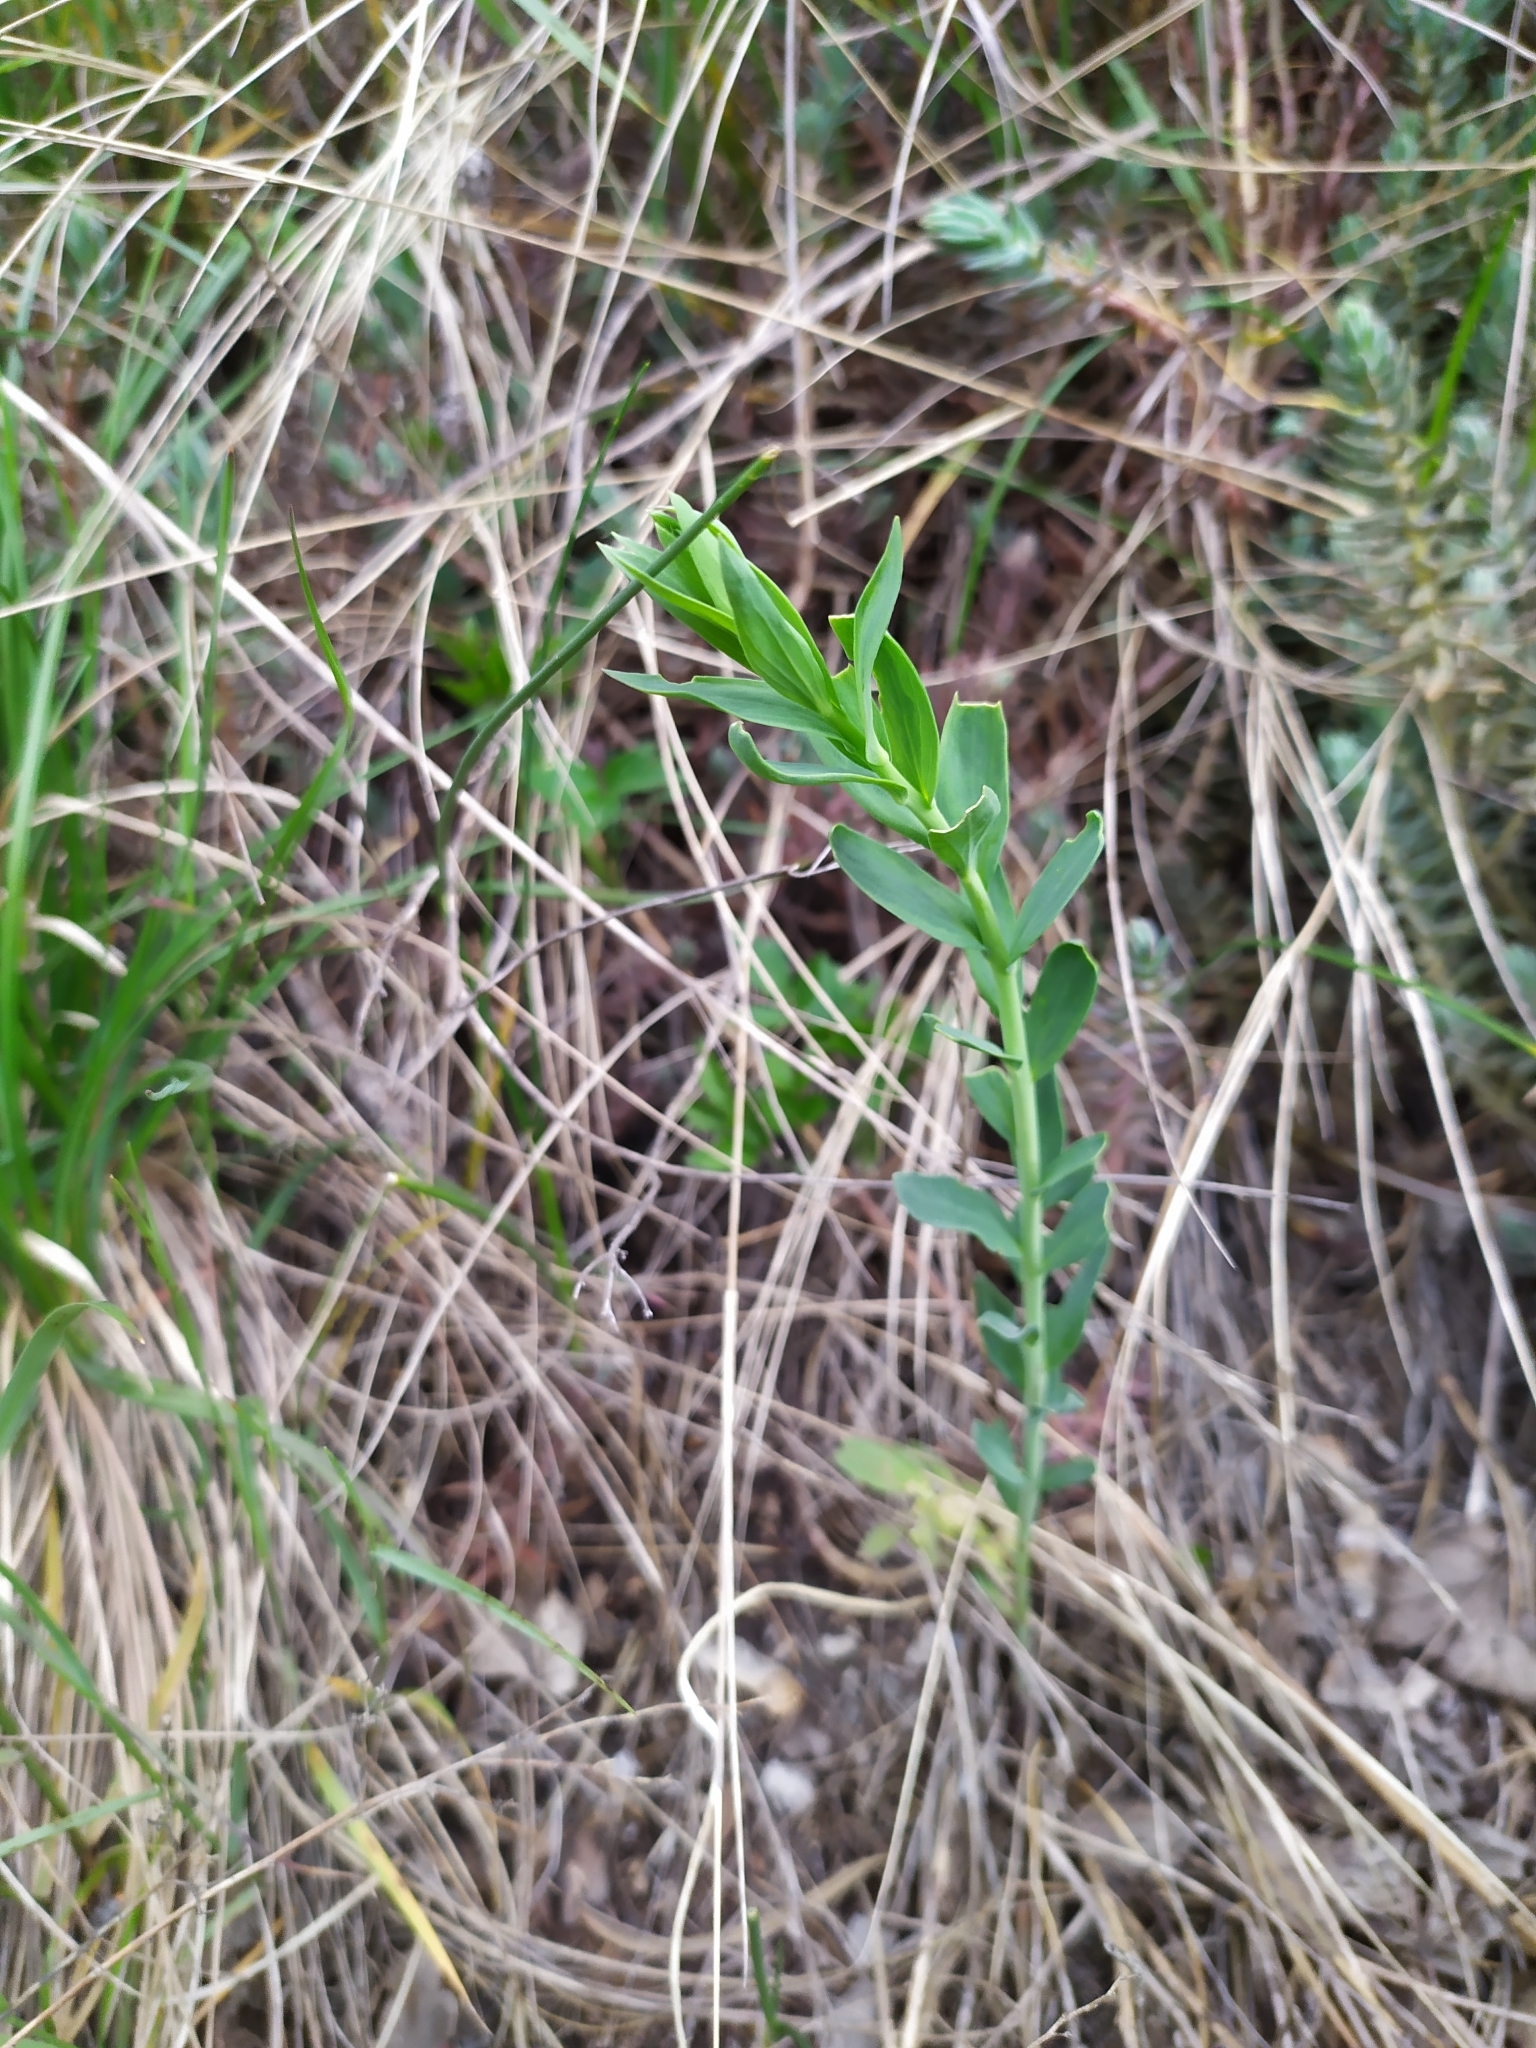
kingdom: Plantae
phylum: Tracheophyta
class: Magnoliopsida
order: Lamiales
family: Plantaginaceae
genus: Linaria
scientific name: Linaria genistifolia
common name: Broomleaf toadflax
